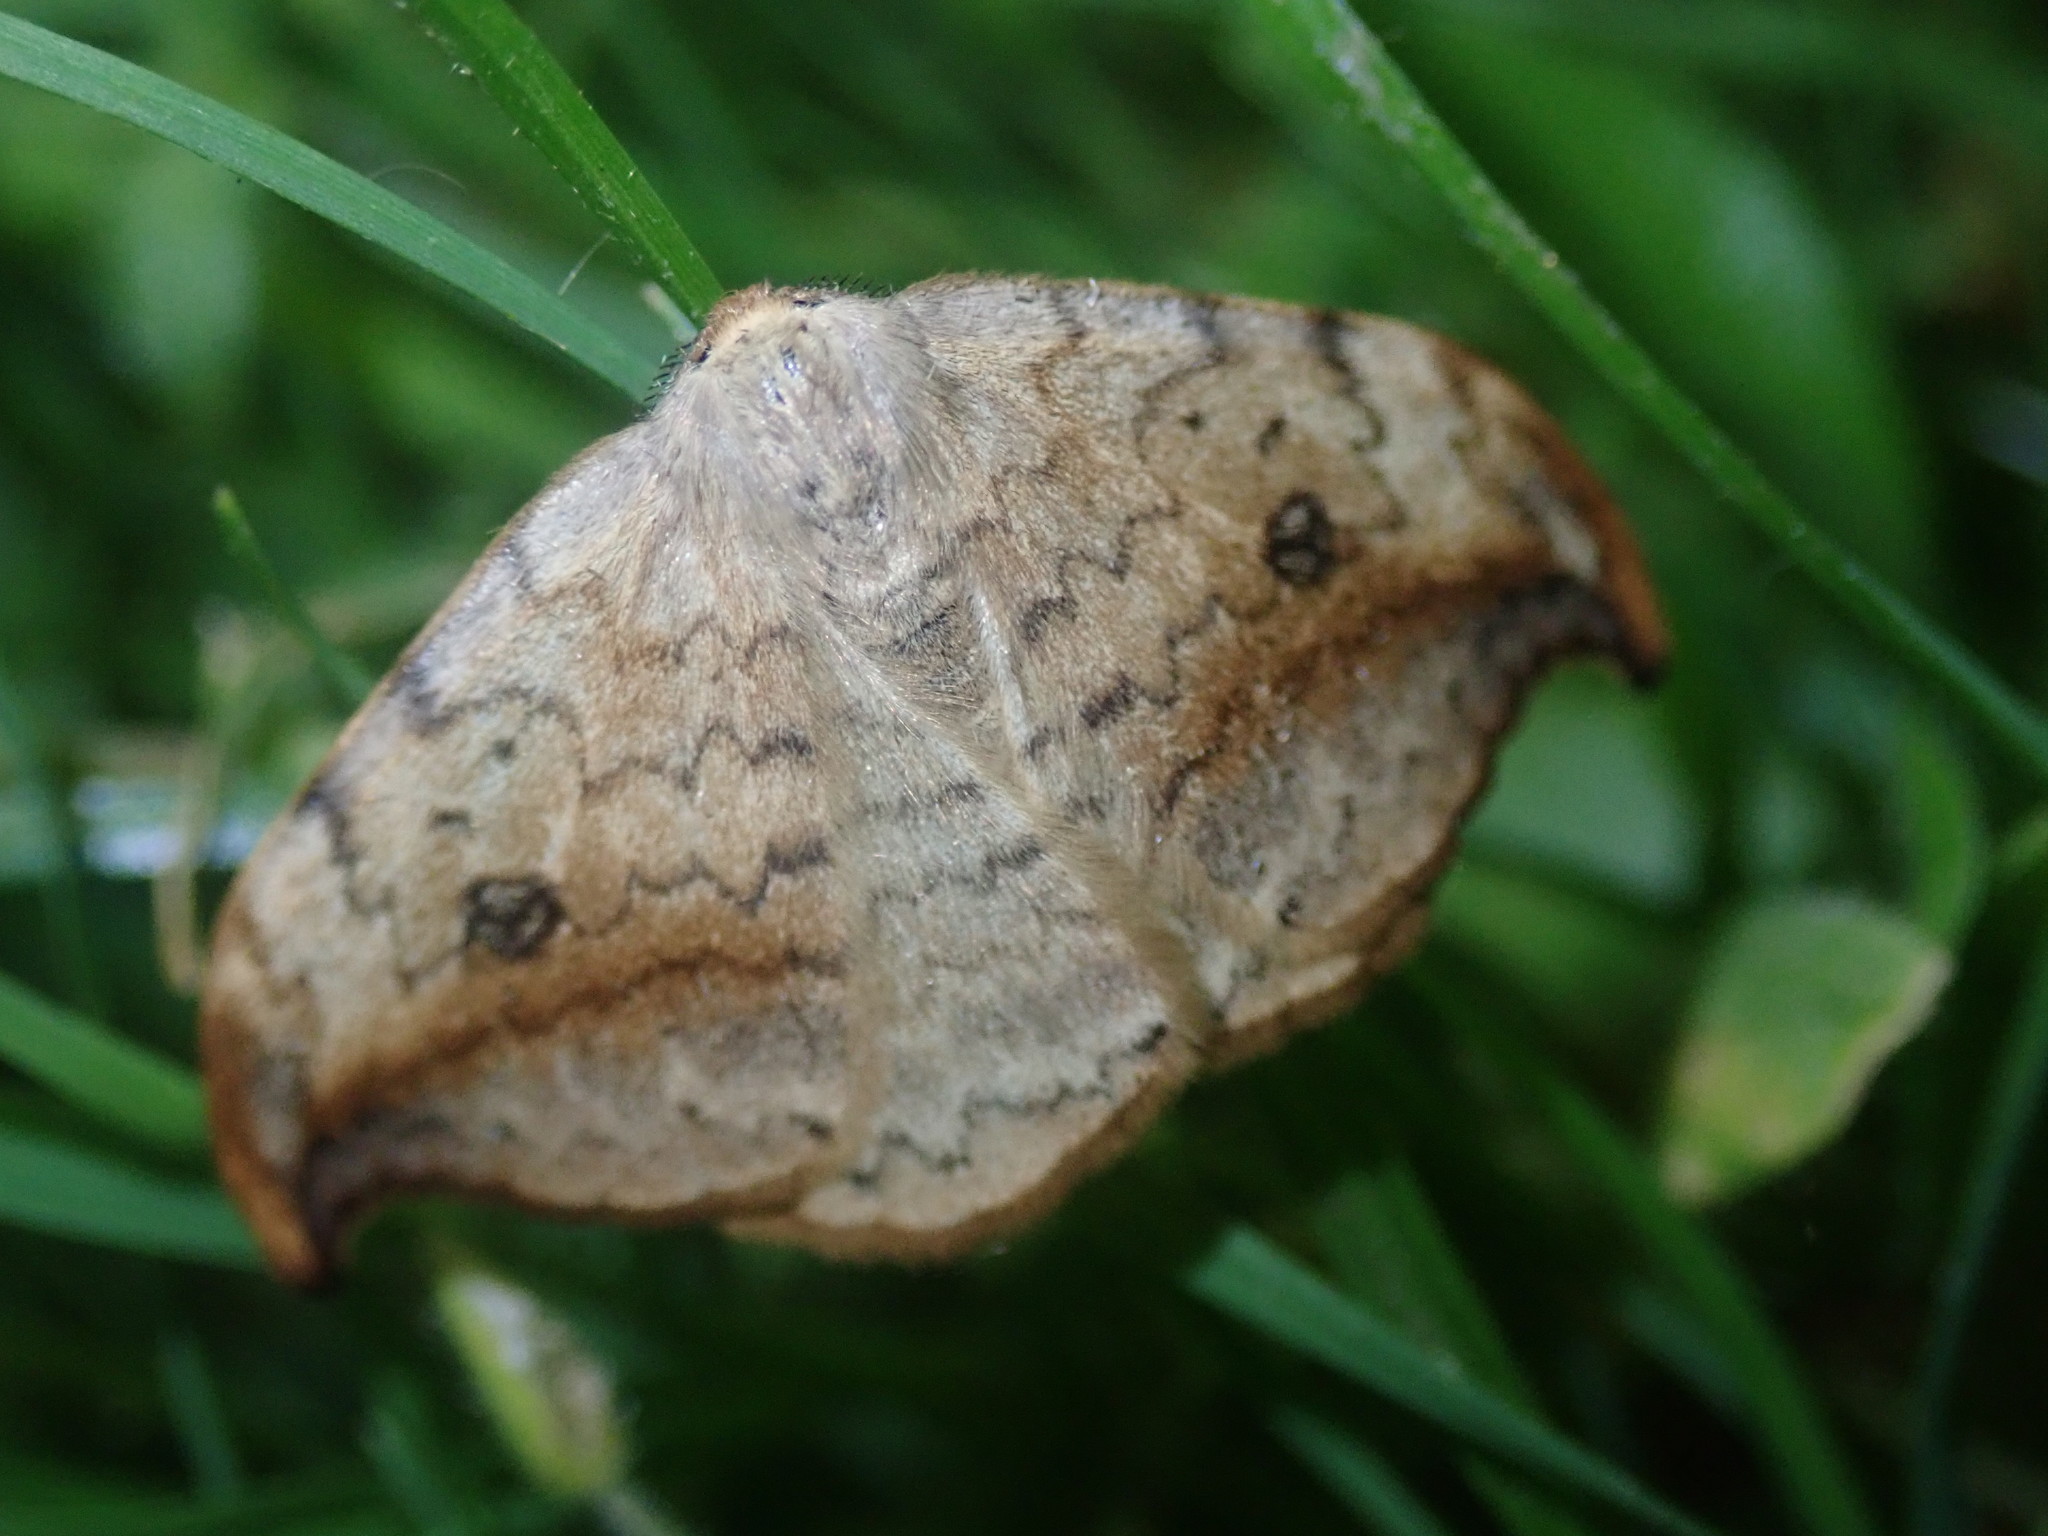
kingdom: Animalia
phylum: Arthropoda
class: Insecta
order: Lepidoptera
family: Drepanidae
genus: Drepana
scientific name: Drepana falcataria
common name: Pebble hook-tip
